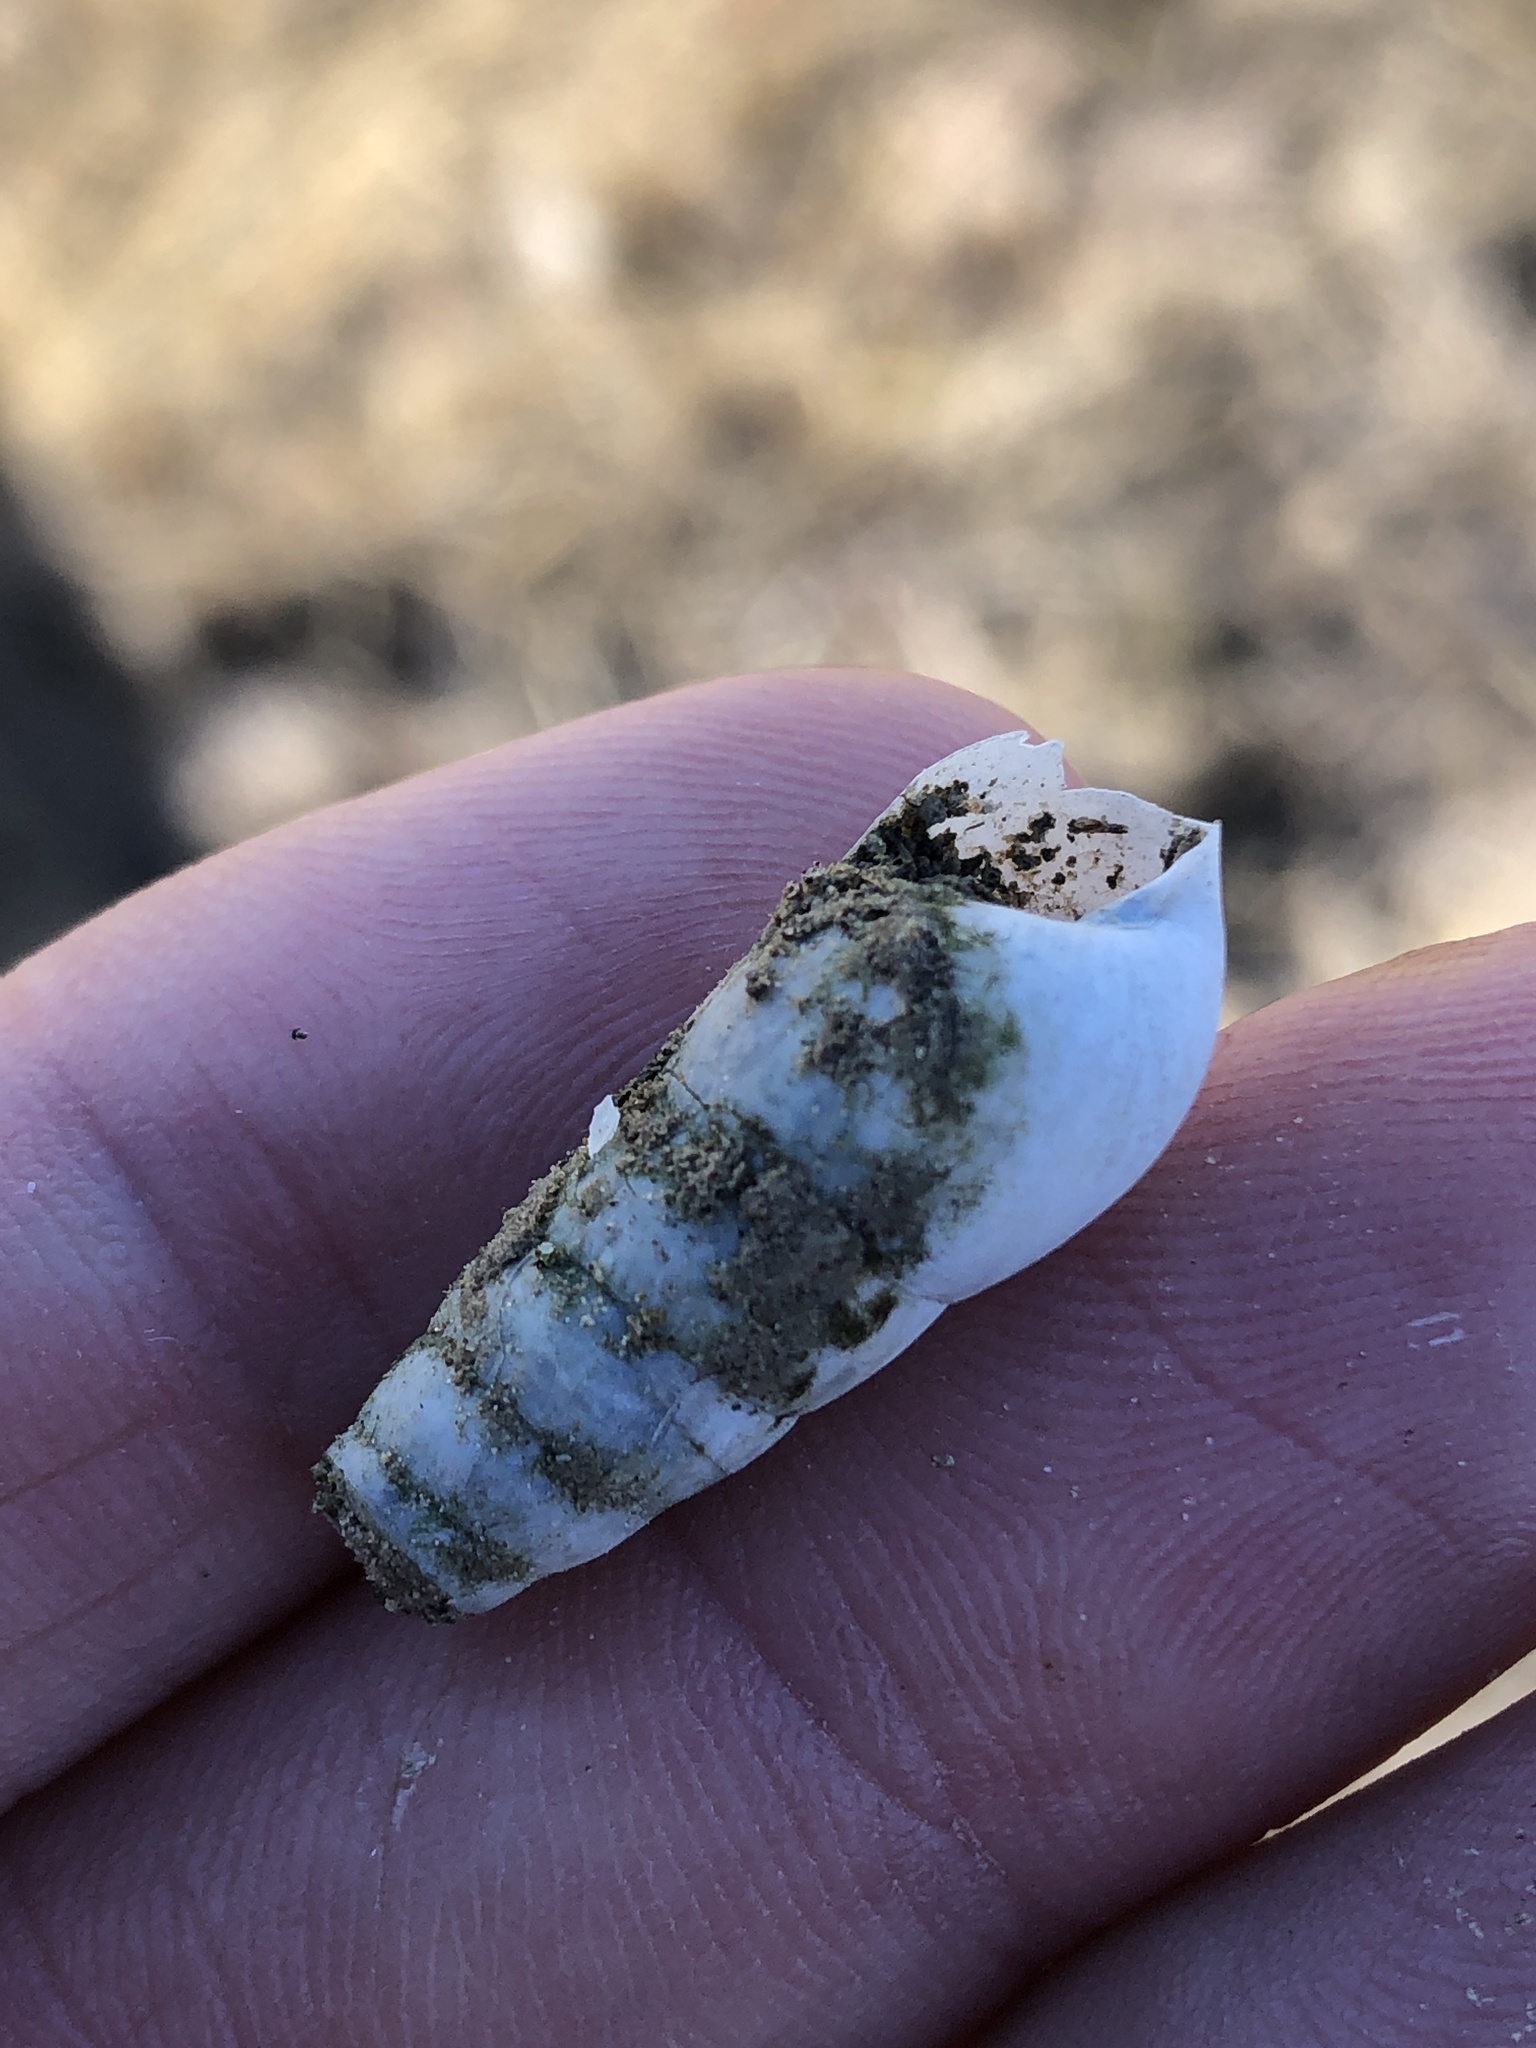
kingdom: Animalia
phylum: Mollusca
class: Gastropoda
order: Stylommatophora
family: Achatinidae
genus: Rumina
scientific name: Rumina decollata
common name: Decollate snail
